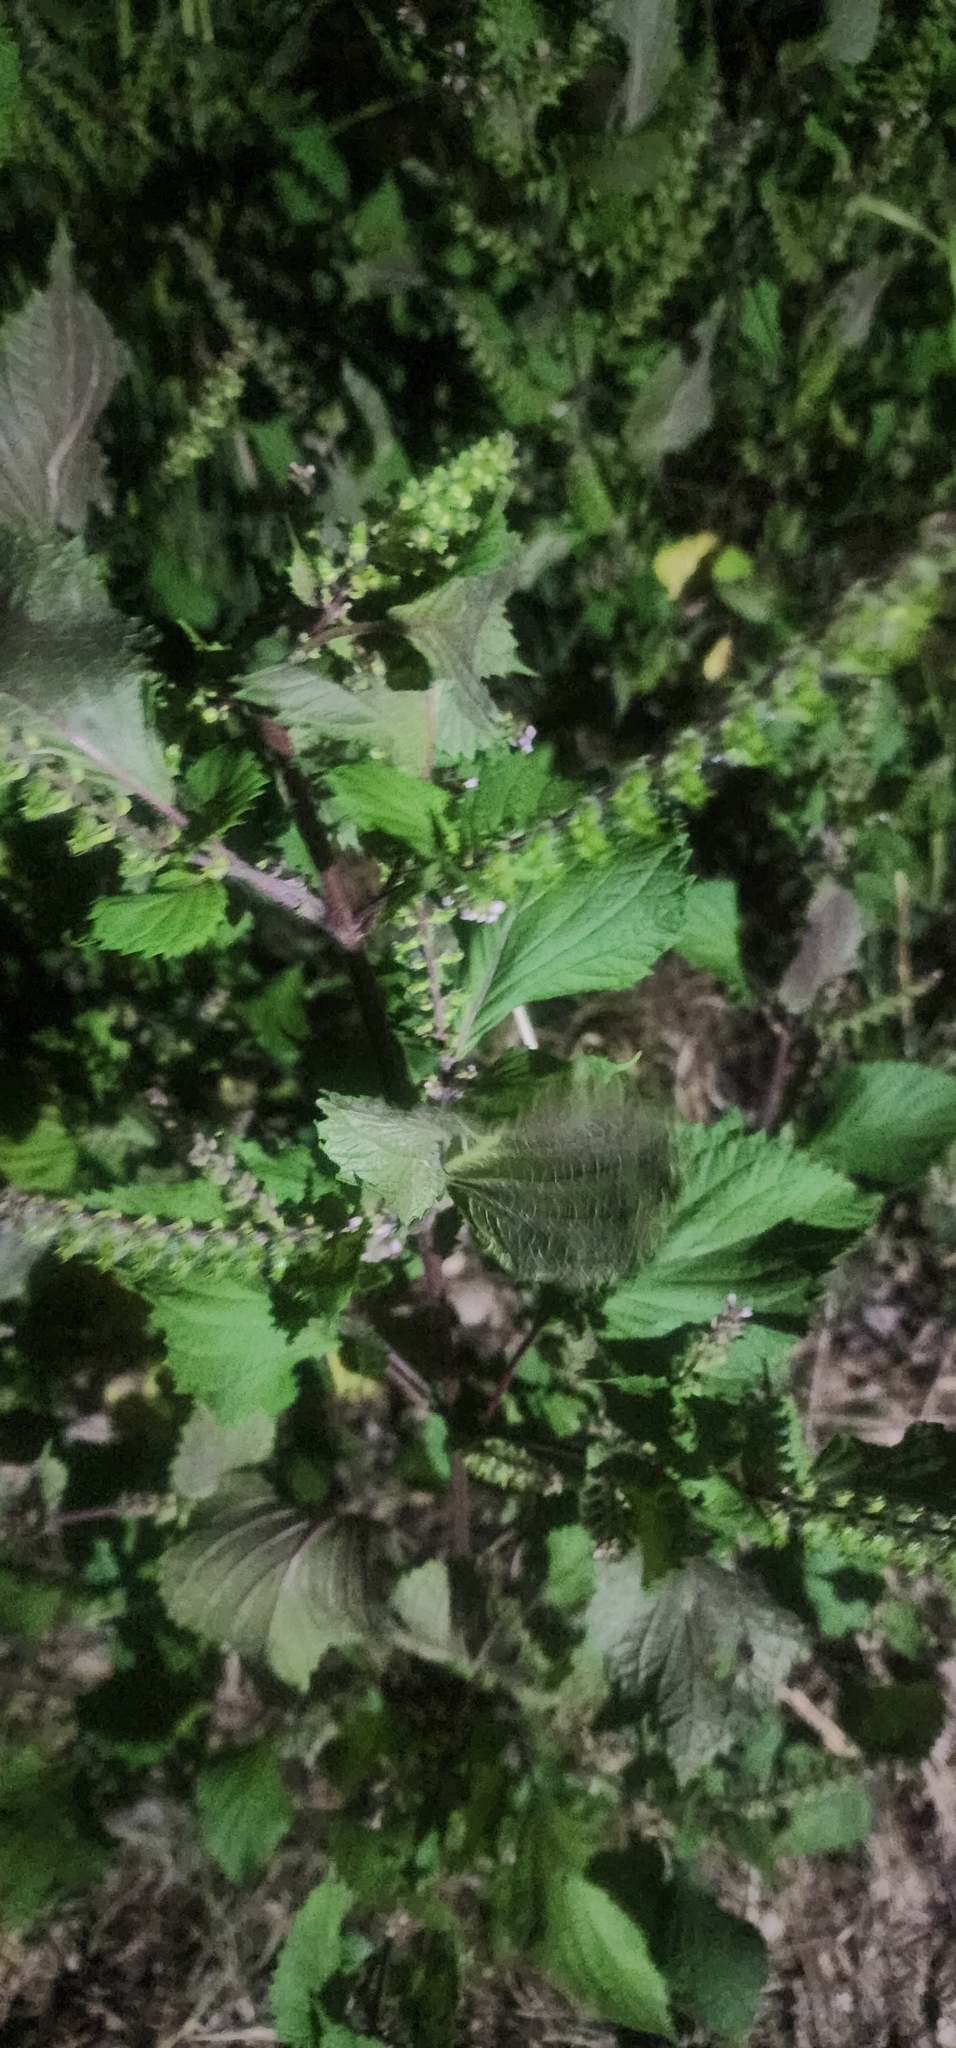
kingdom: Plantae
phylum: Tracheophyta
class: Magnoliopsida
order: Lamiales
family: Lamiaceae
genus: Perilla
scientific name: Perilla frutescens
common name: Perilla
